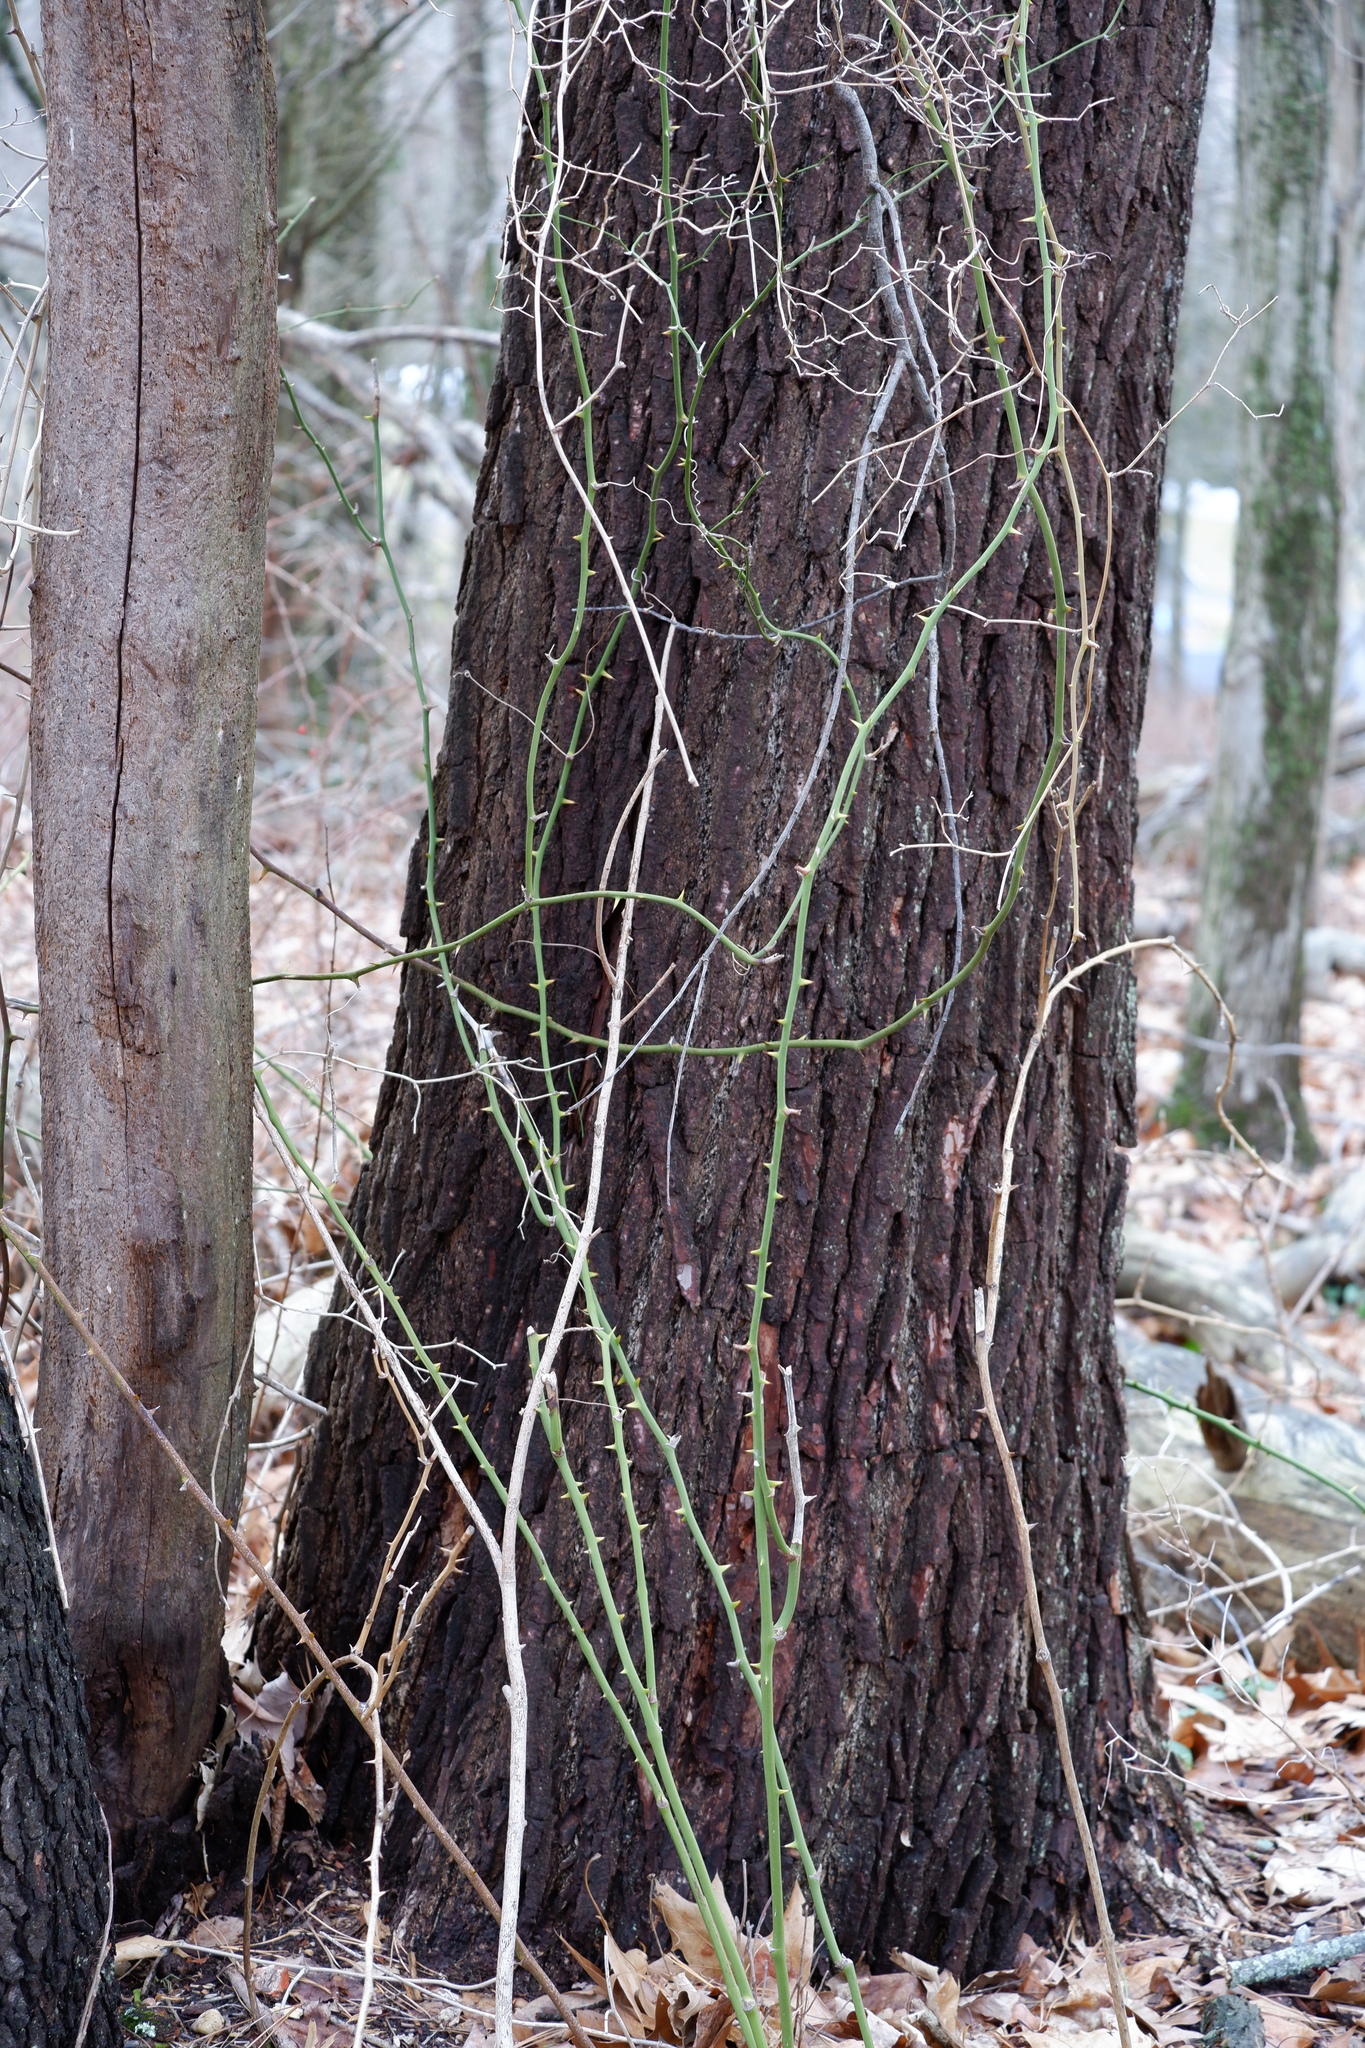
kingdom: Plantae
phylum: Tracheophyta
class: Liliopsida
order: Liliales
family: Smilacaceae
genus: Smilax
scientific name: Smilax rotundifolia
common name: Bullbriar
